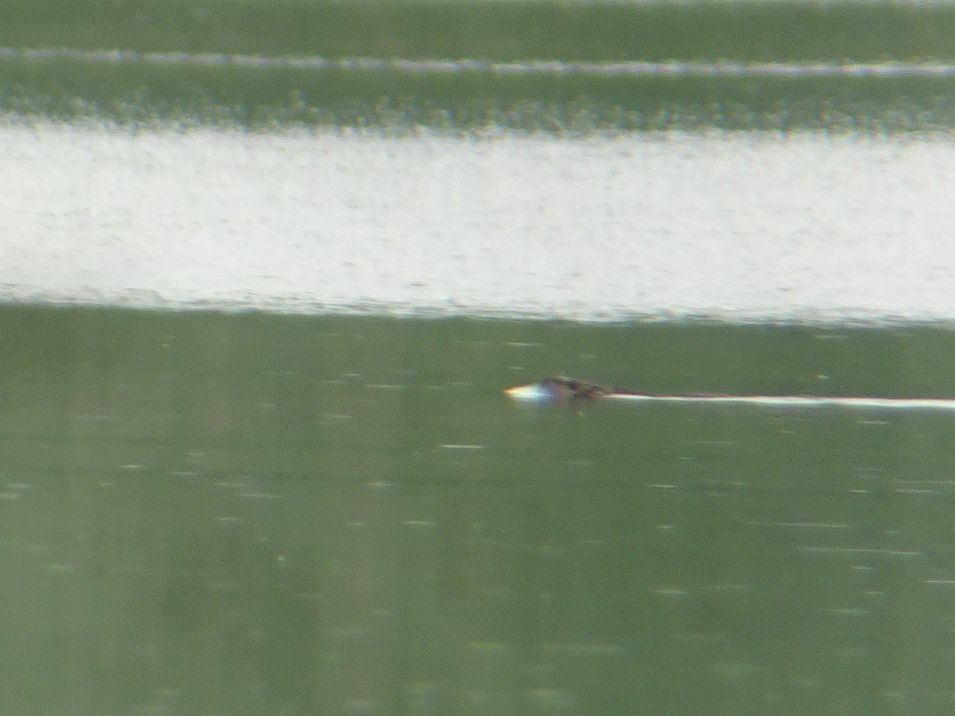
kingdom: Animalia
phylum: Chordata
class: Mammalia
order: Rodentia
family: Castoridae
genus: Castor
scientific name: Castor fiber
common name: Eurasian beaver
